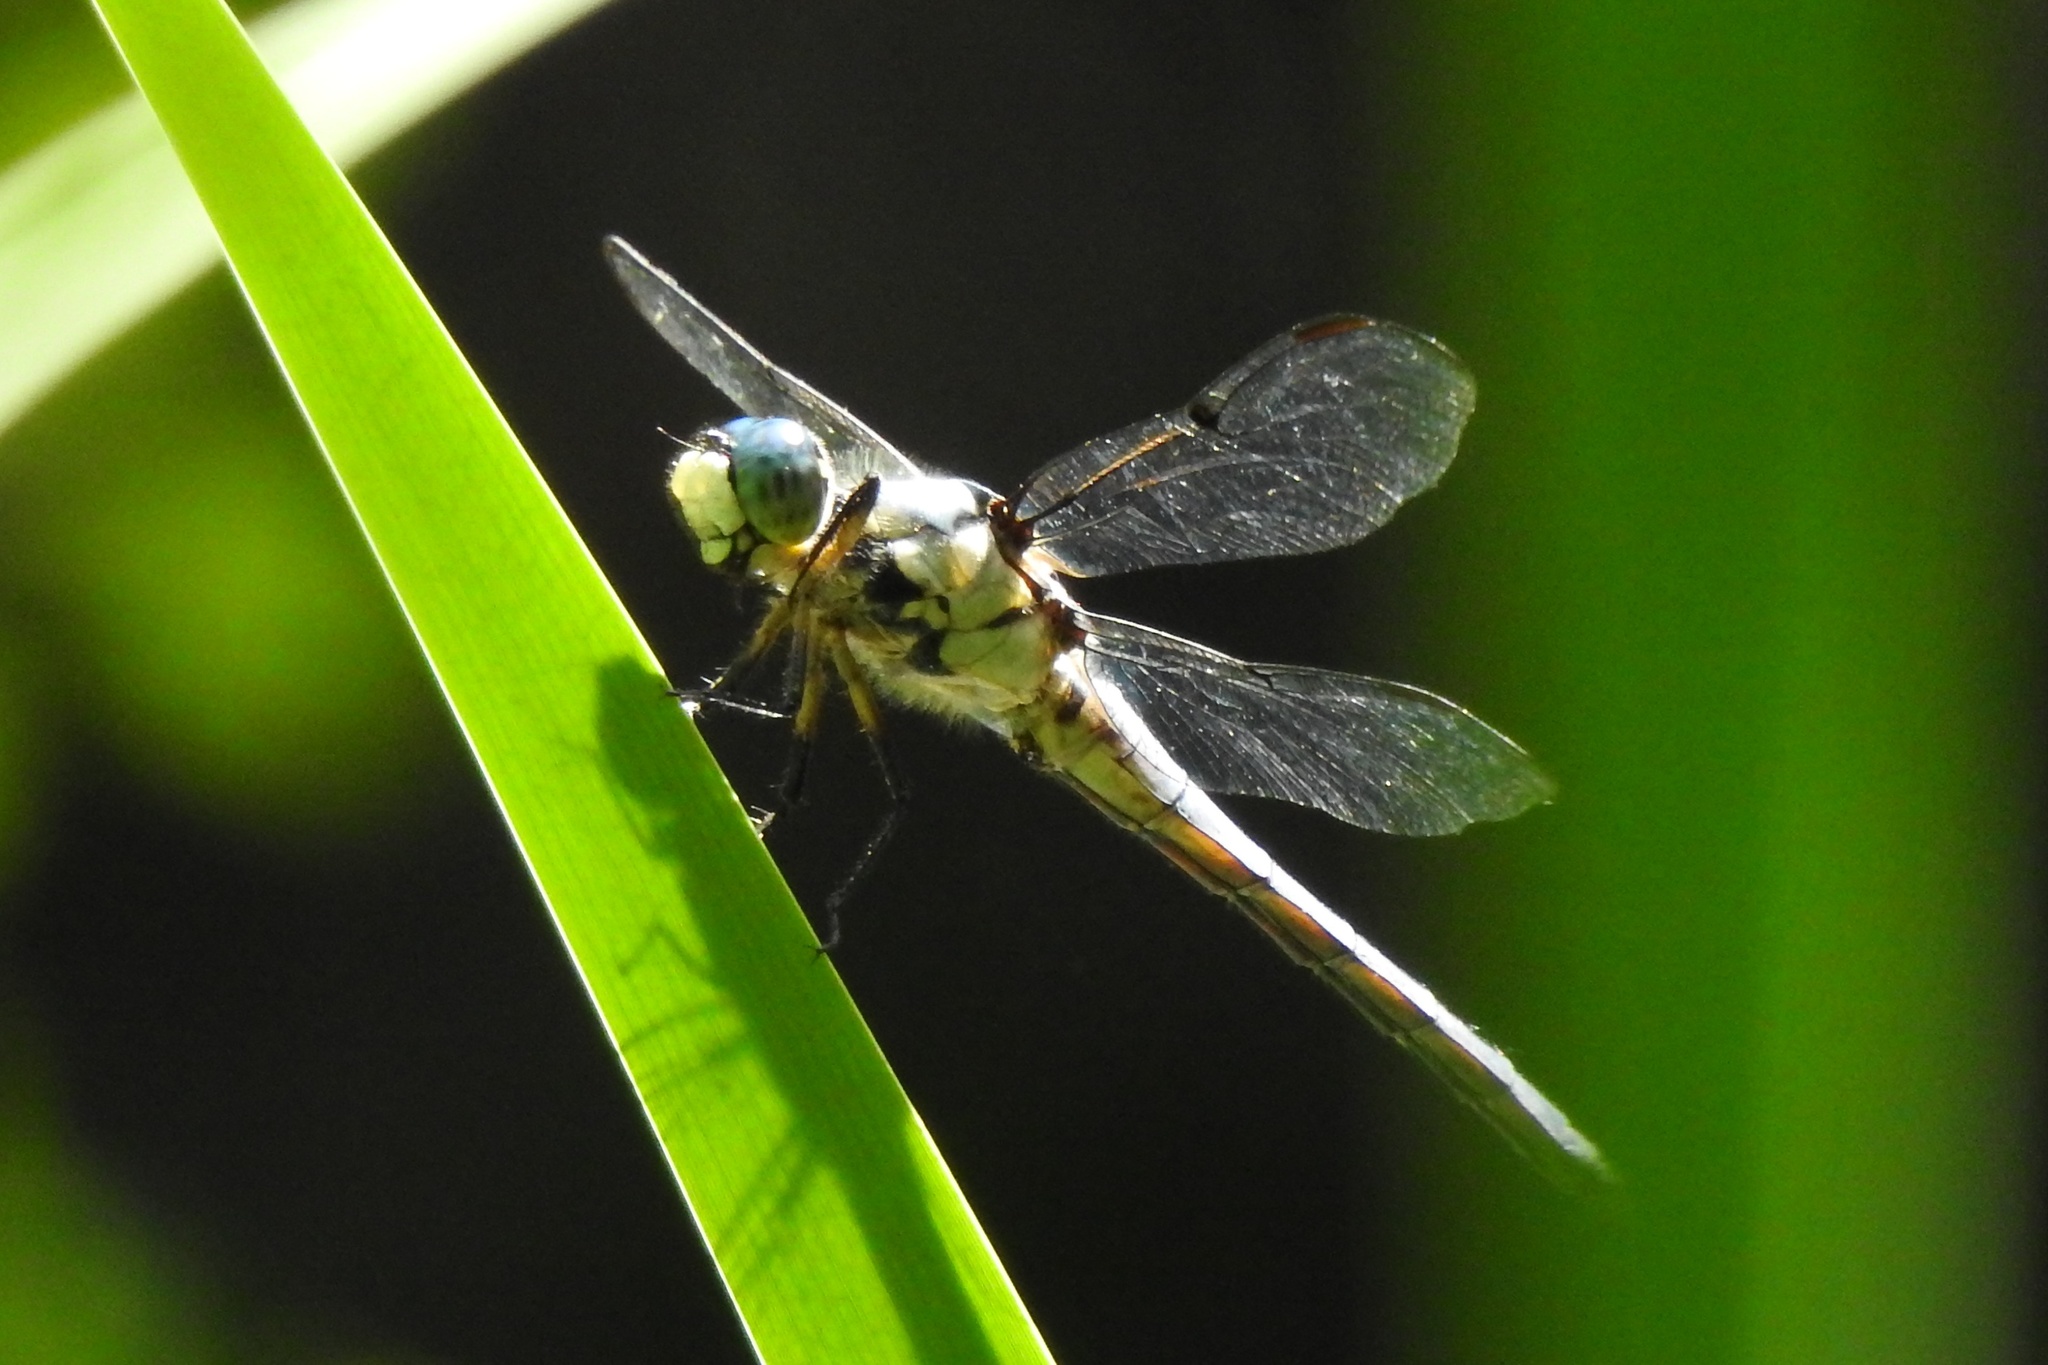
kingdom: Animalia
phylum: Arthropoda
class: Insecta
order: Odonata
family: Libellulidae
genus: Libellula
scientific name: Libellula vibrans
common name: Great blue skimmer
